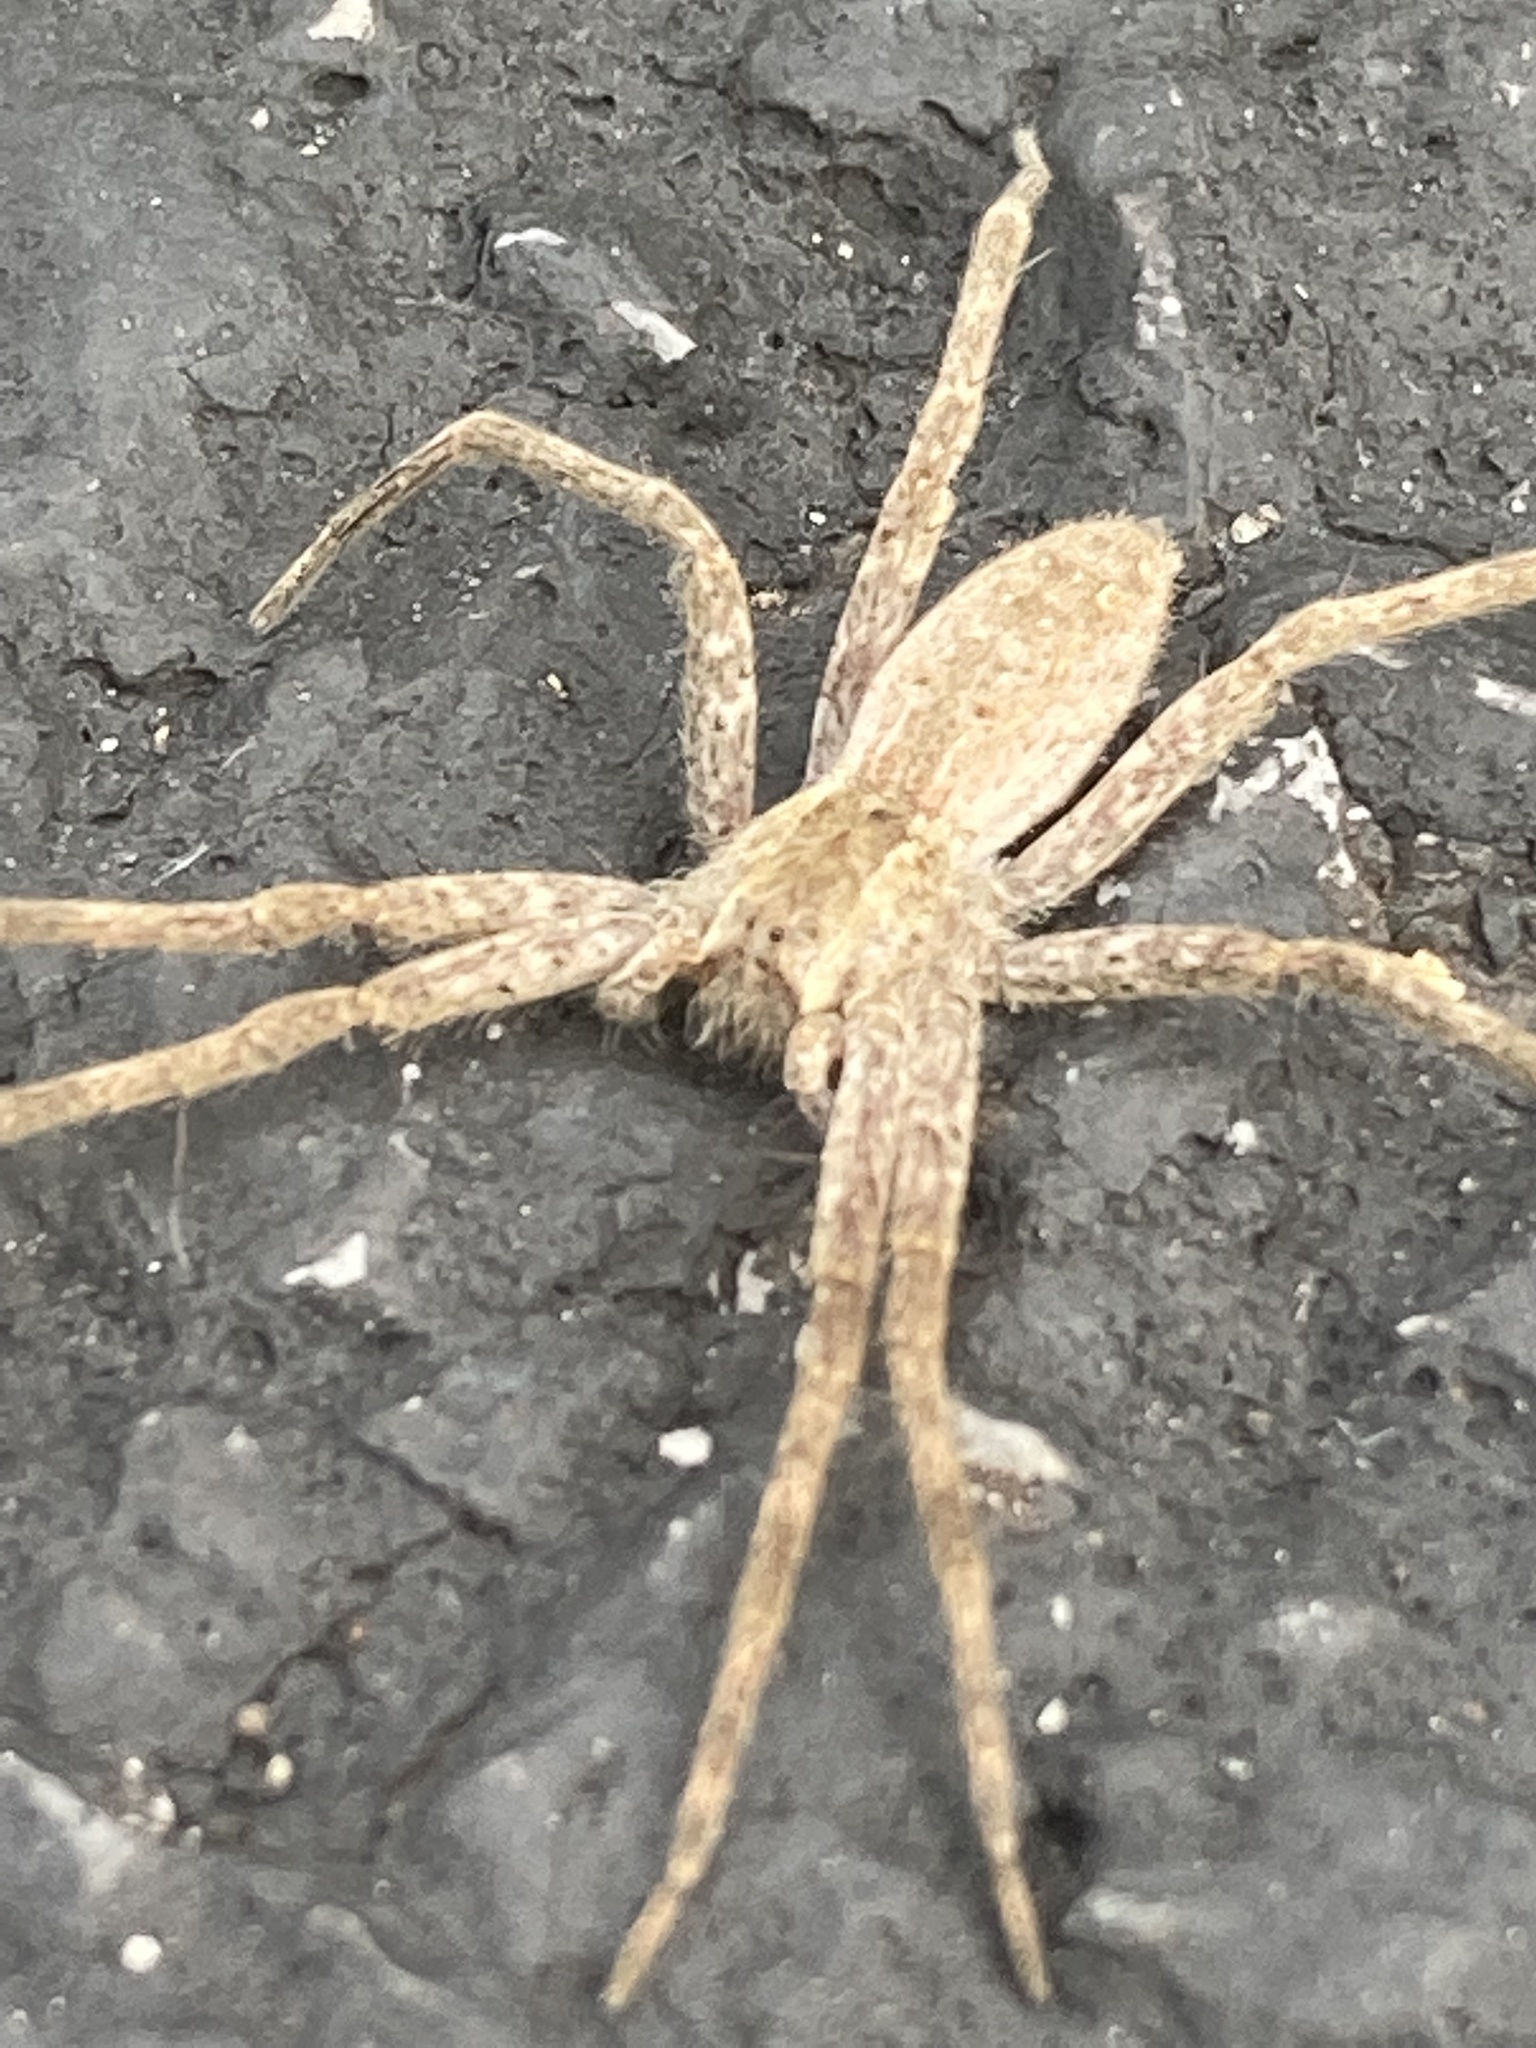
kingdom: Animalia
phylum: Arthropoda
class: Arachnida
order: Araneae
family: Pisauridae
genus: Pisaurina
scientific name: Pisaurina mira
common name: American nursery web spider
